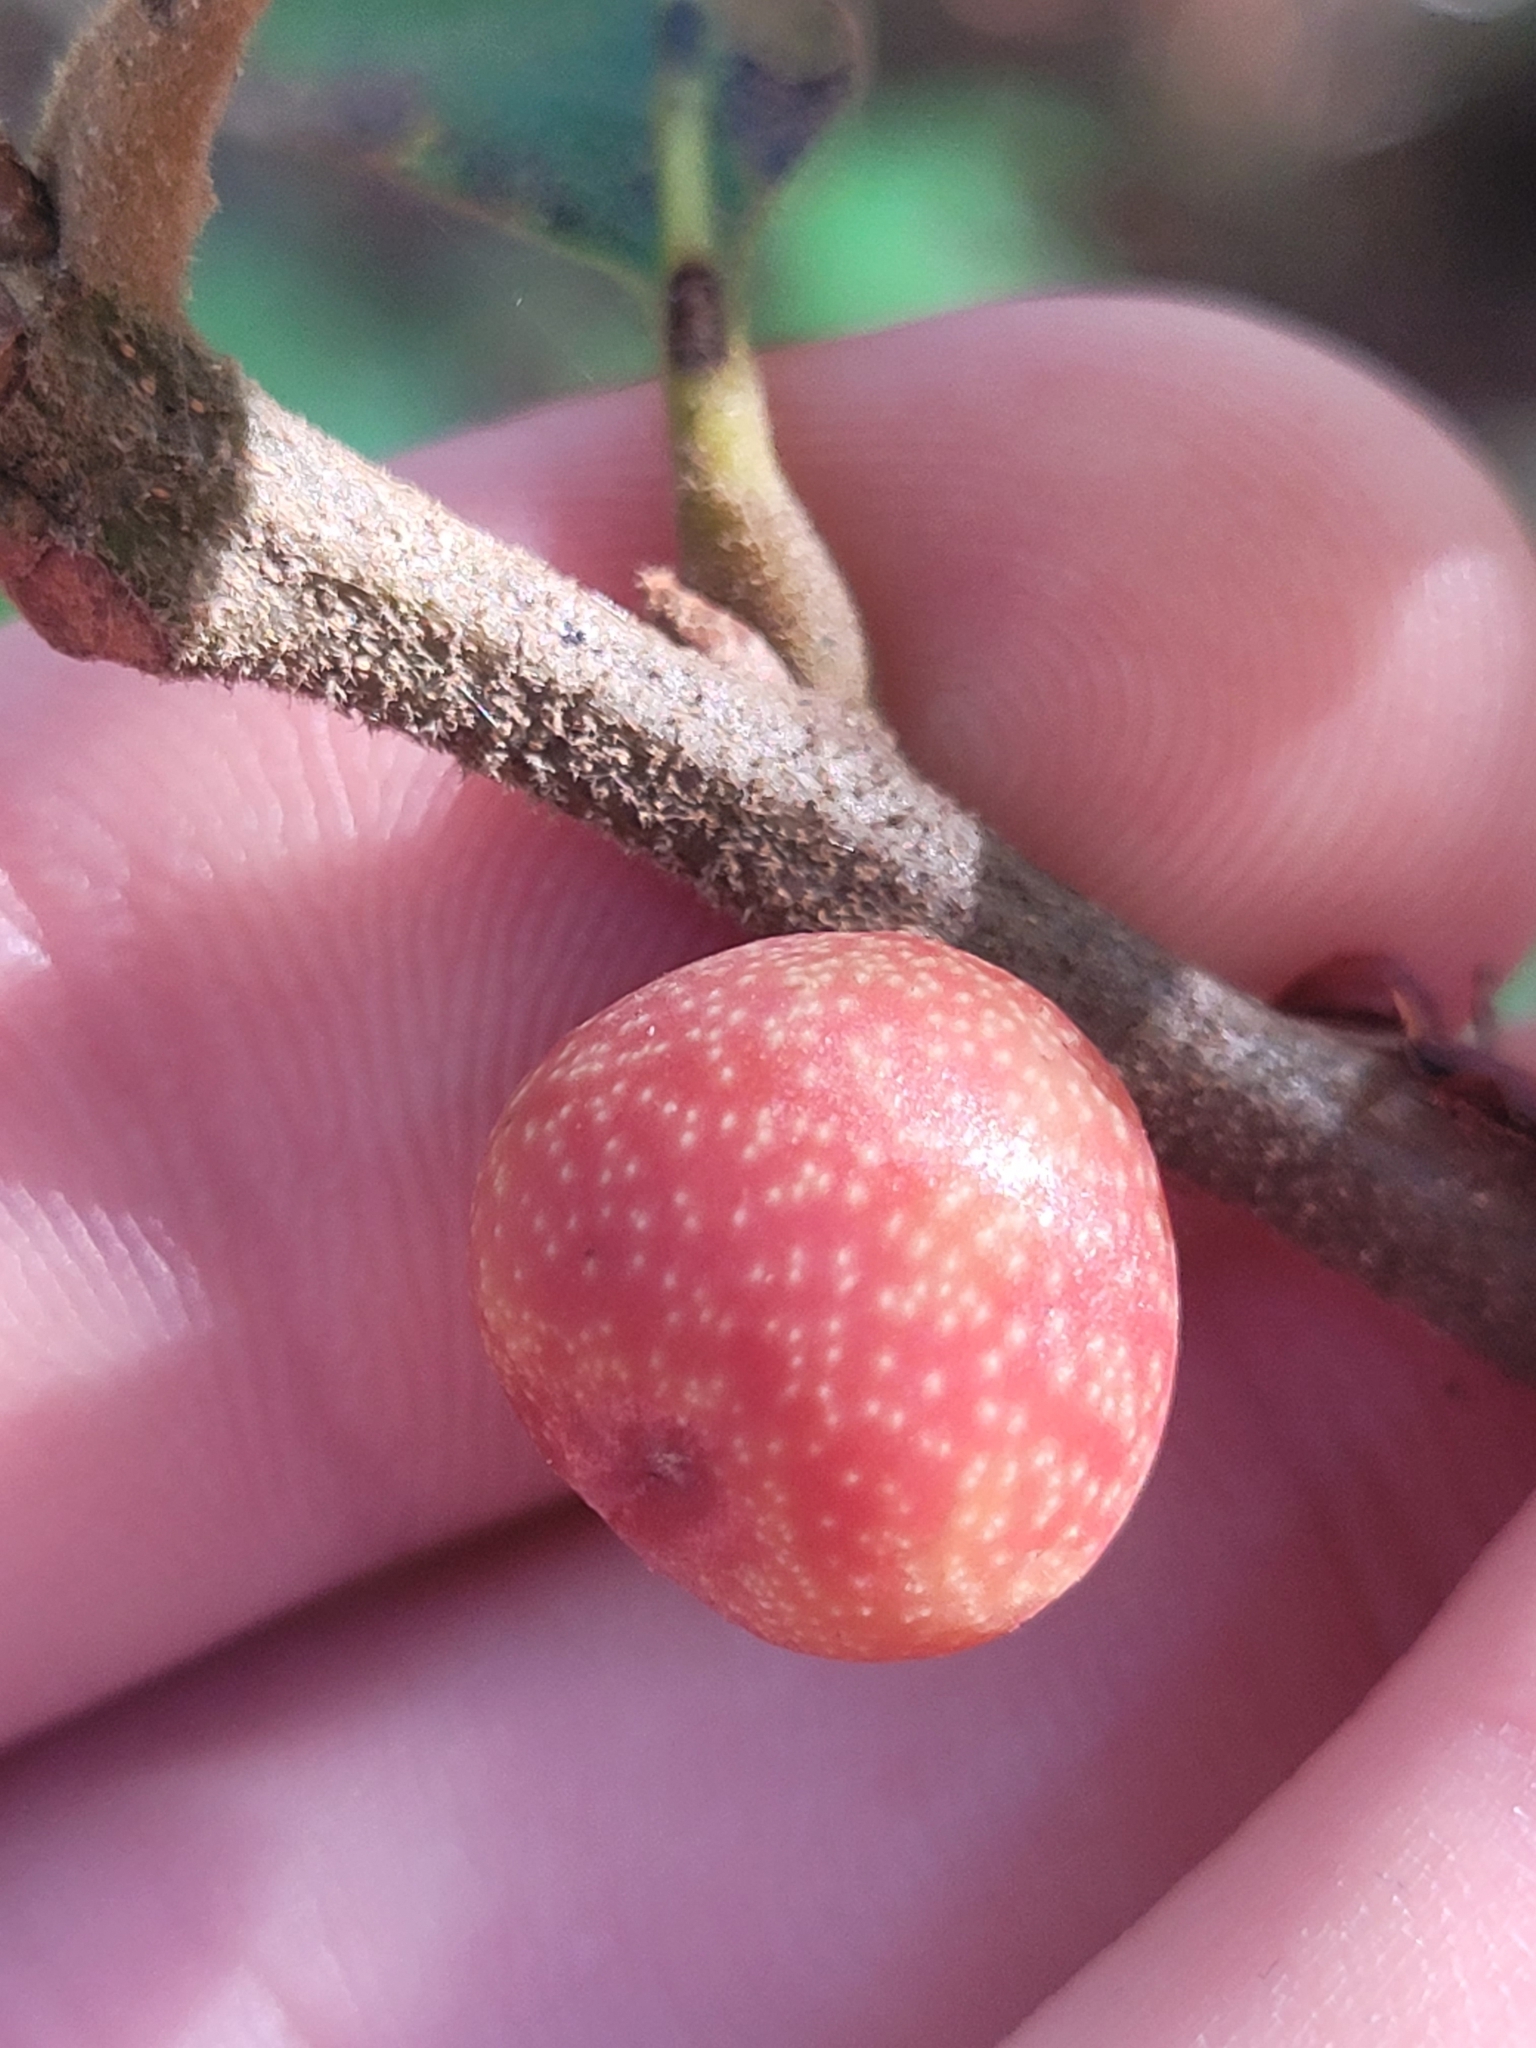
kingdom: Animalia
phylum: Arthropoda
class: Insecta
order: Hymenoptera
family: Cynipidae
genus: Kokkocynips
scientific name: Kokkocynips imbricariae
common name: Banded bullet gall wasp
